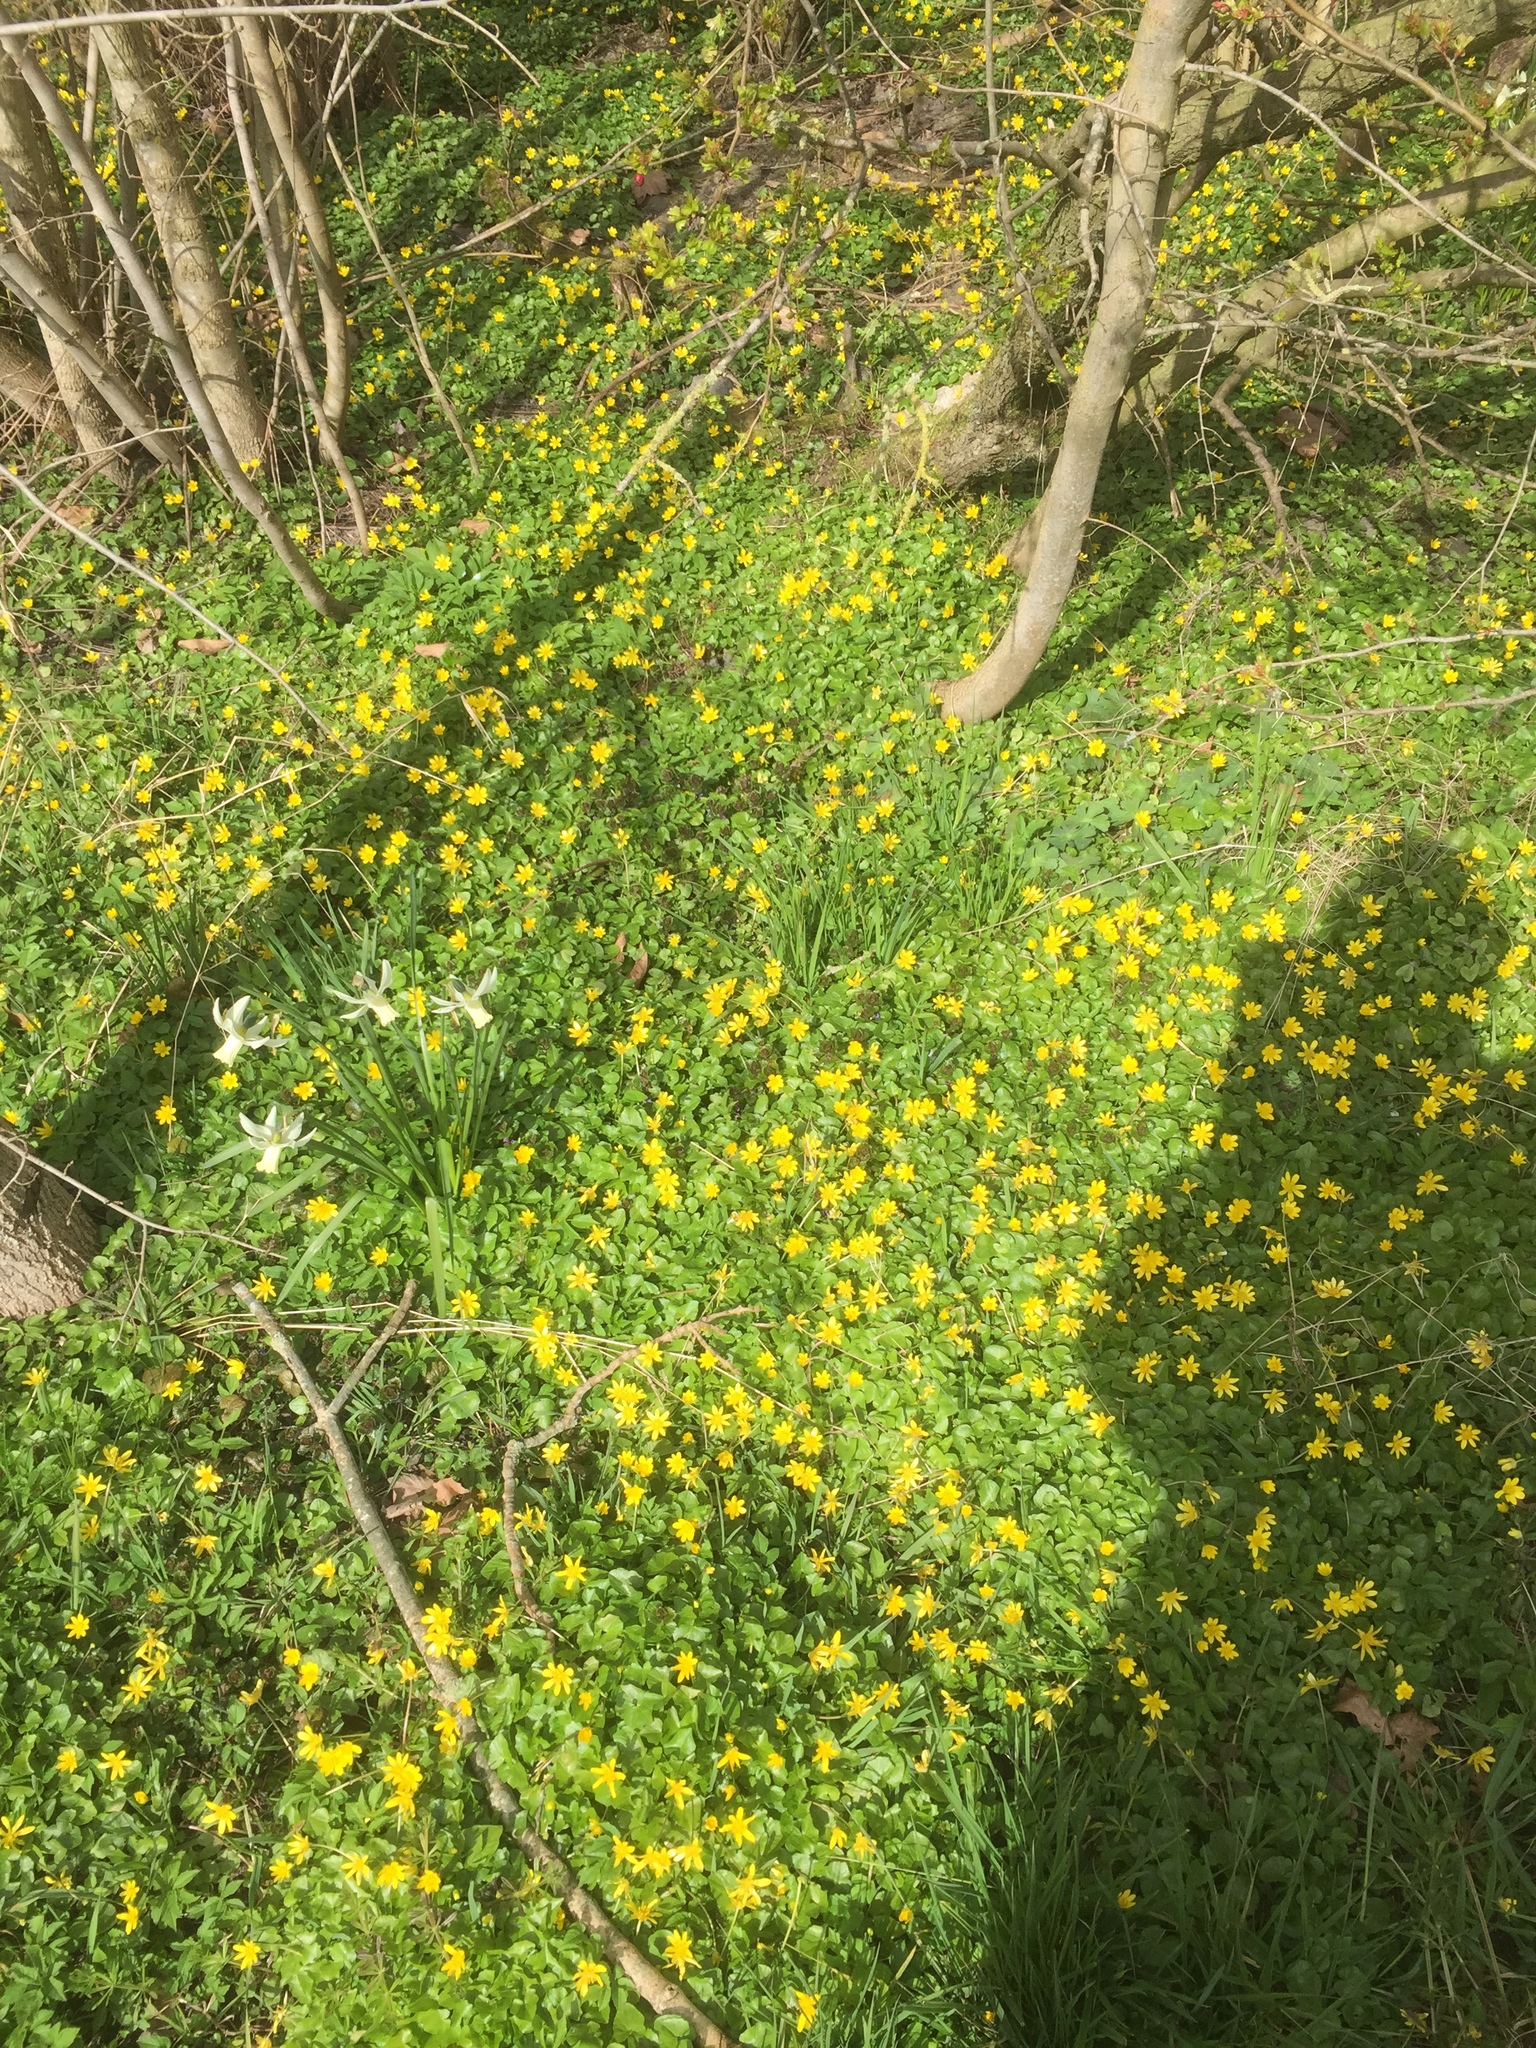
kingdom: Plantae
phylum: Tracheophyta
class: Magnoliopsida
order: Ranunculales
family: Ranunculaceae
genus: Ficaria
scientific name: Ficaria verna
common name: Lesser celandine
